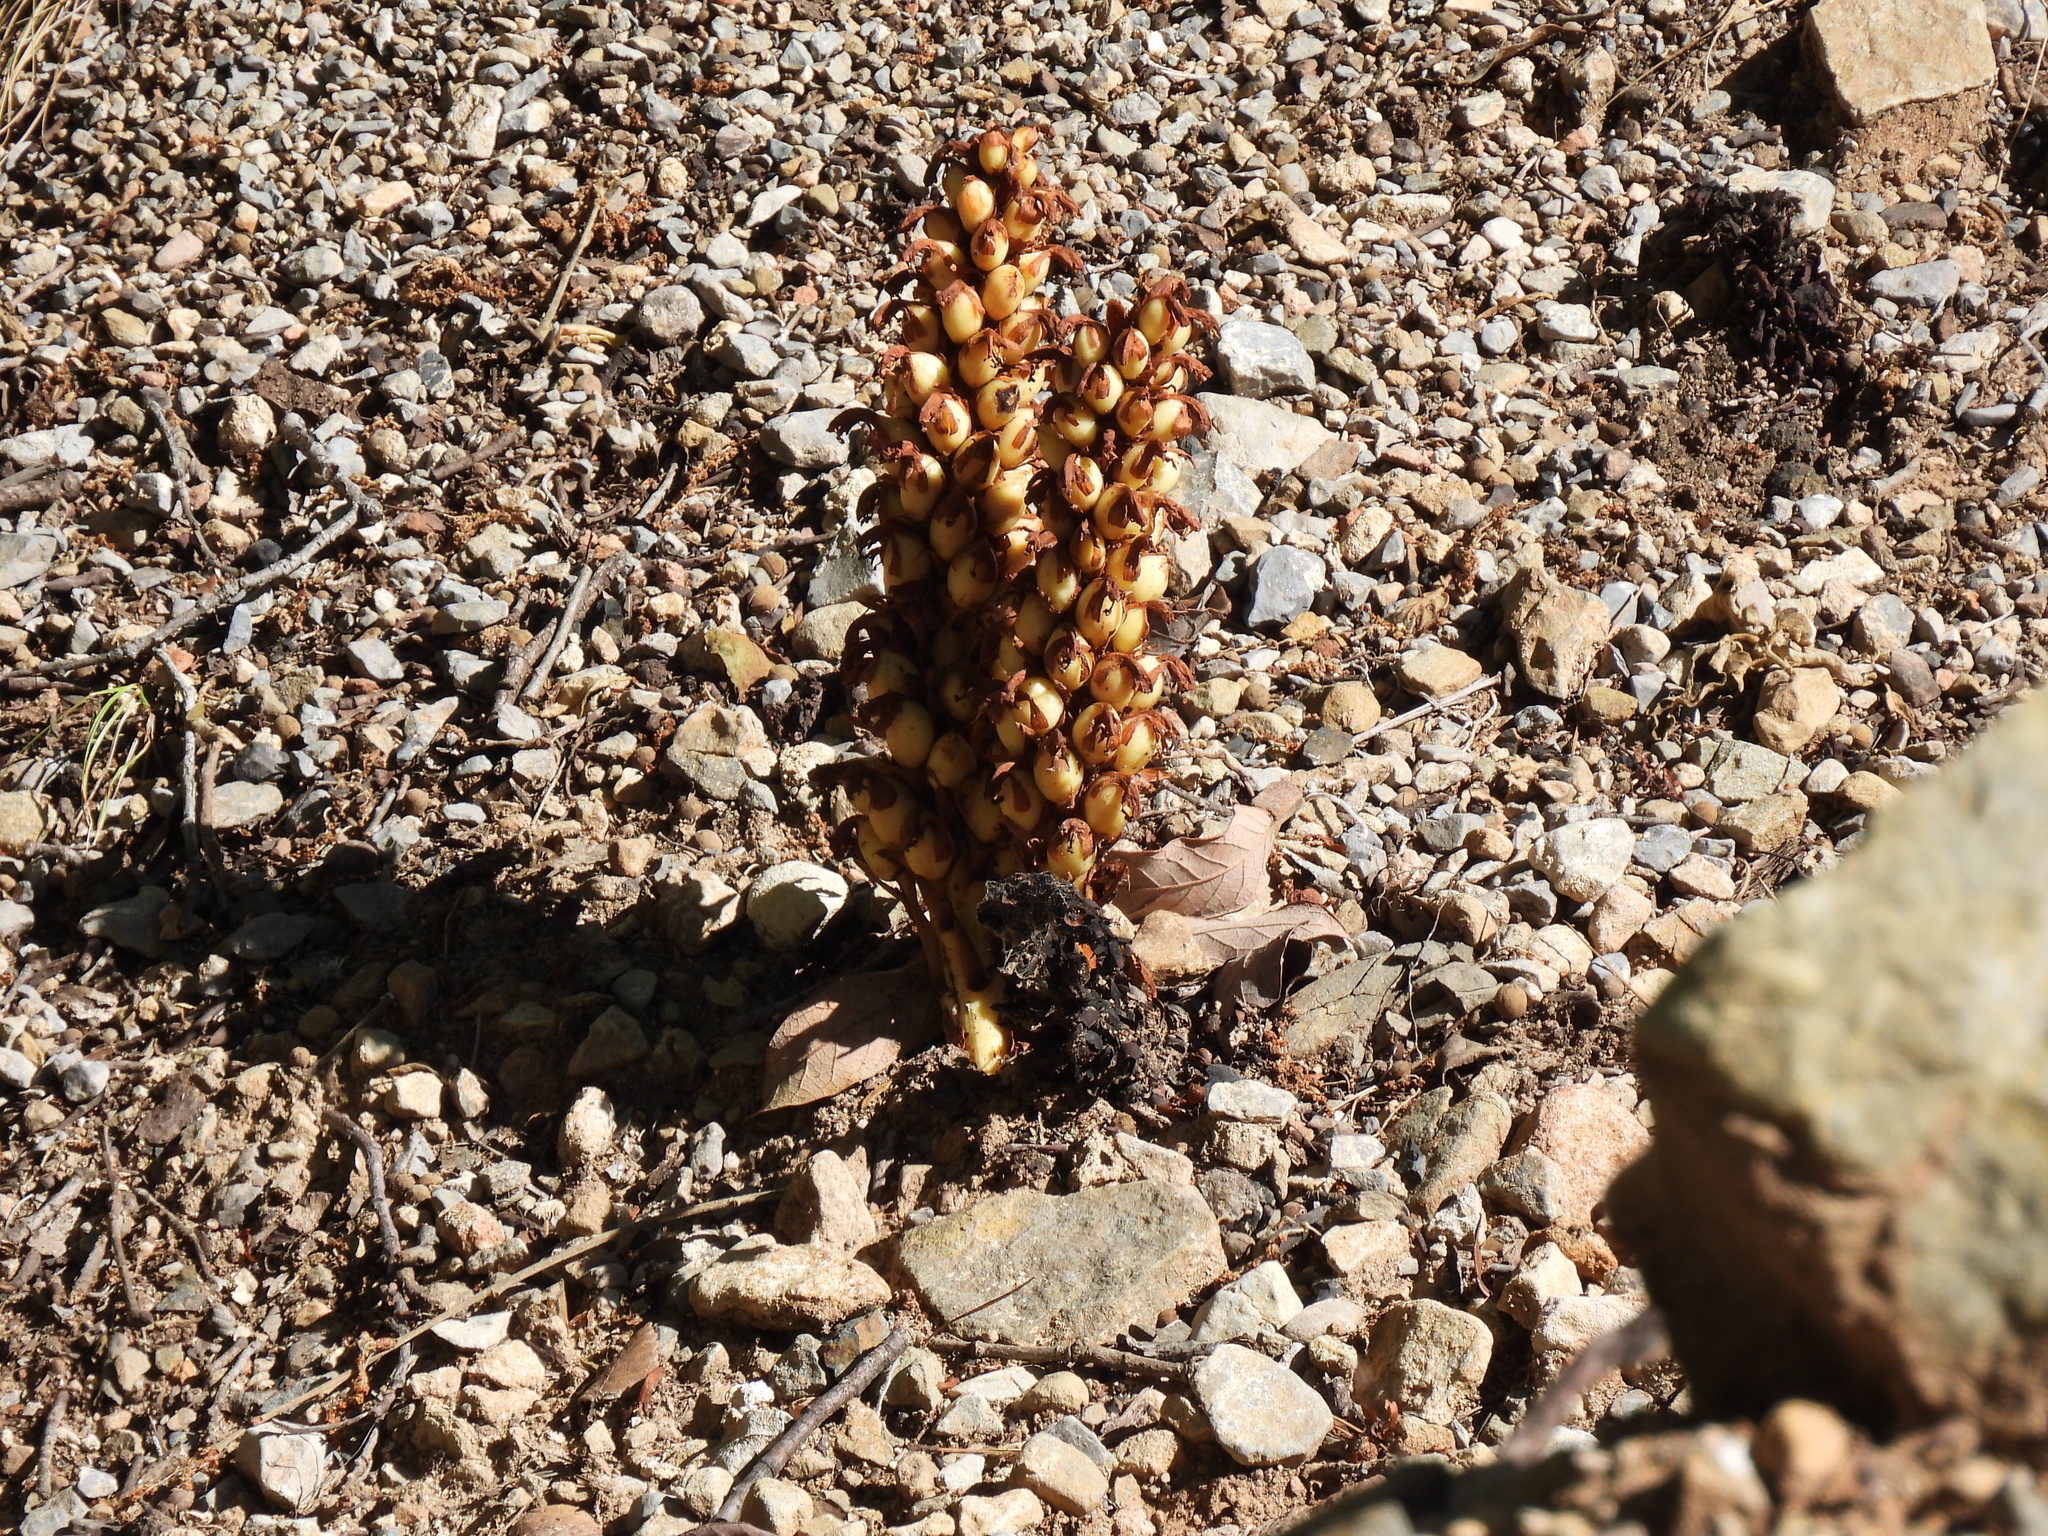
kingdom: Plantae
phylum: Tracheophyta
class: Magnoliopsida
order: Lamiales
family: Orobanchaceae
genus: Conopholis
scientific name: Conopholis alpina
